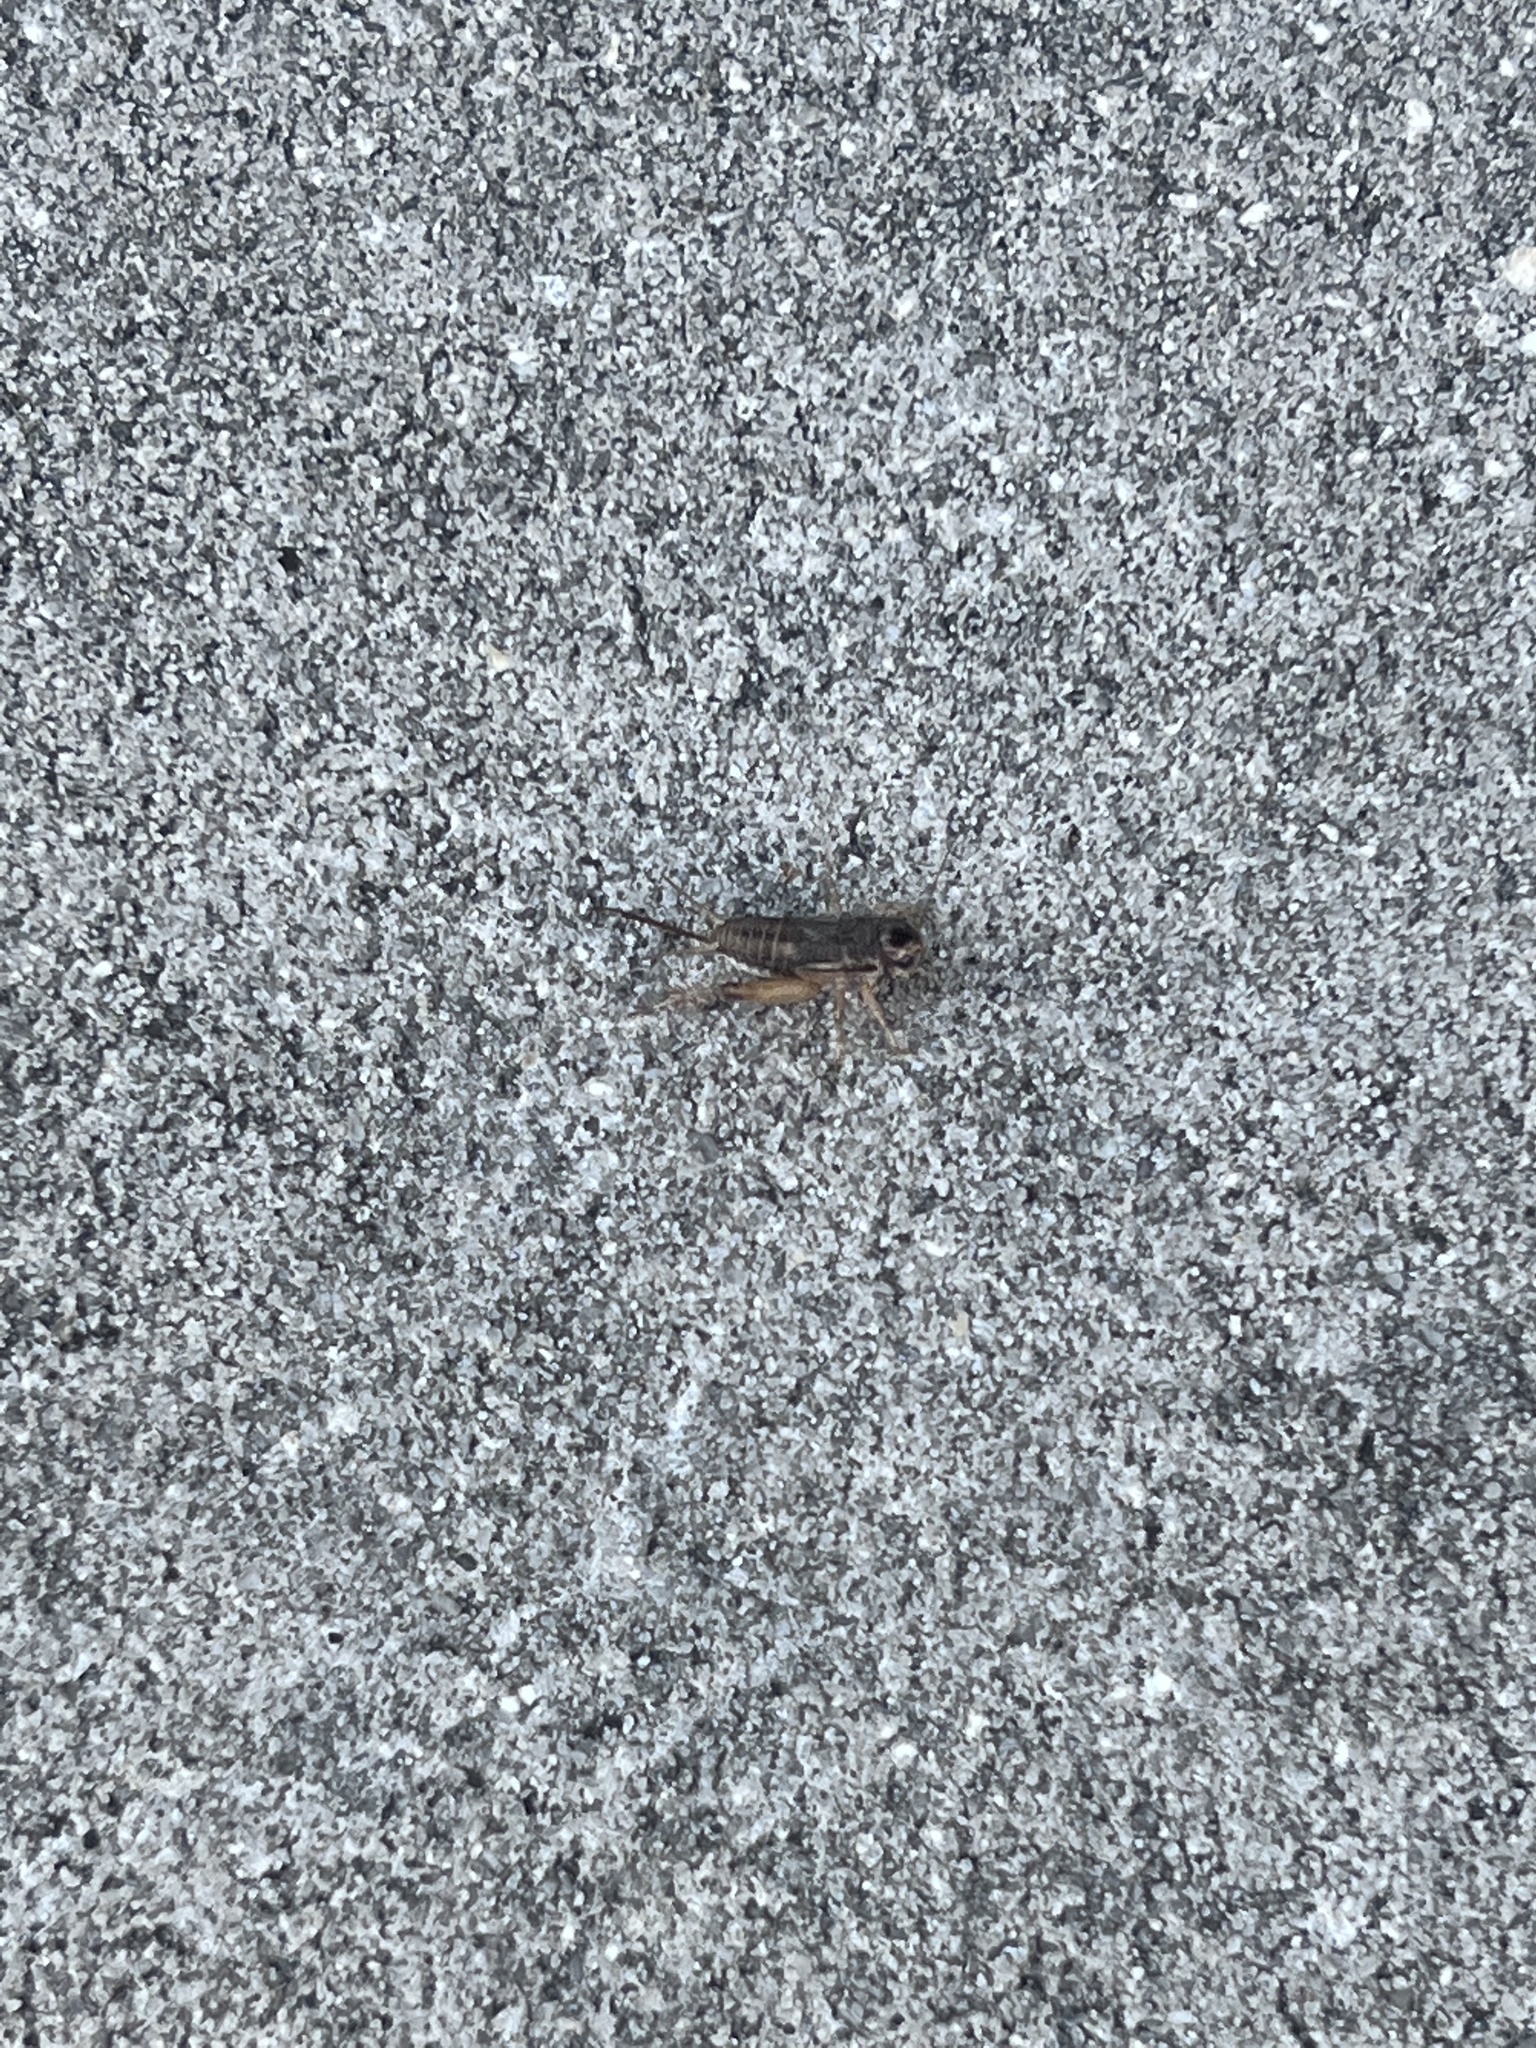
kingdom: Animalia
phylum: Arthropoda
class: Insecta
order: Orthoptera
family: Gryllidae
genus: Miogryllus
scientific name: Miogryllus verticalis
